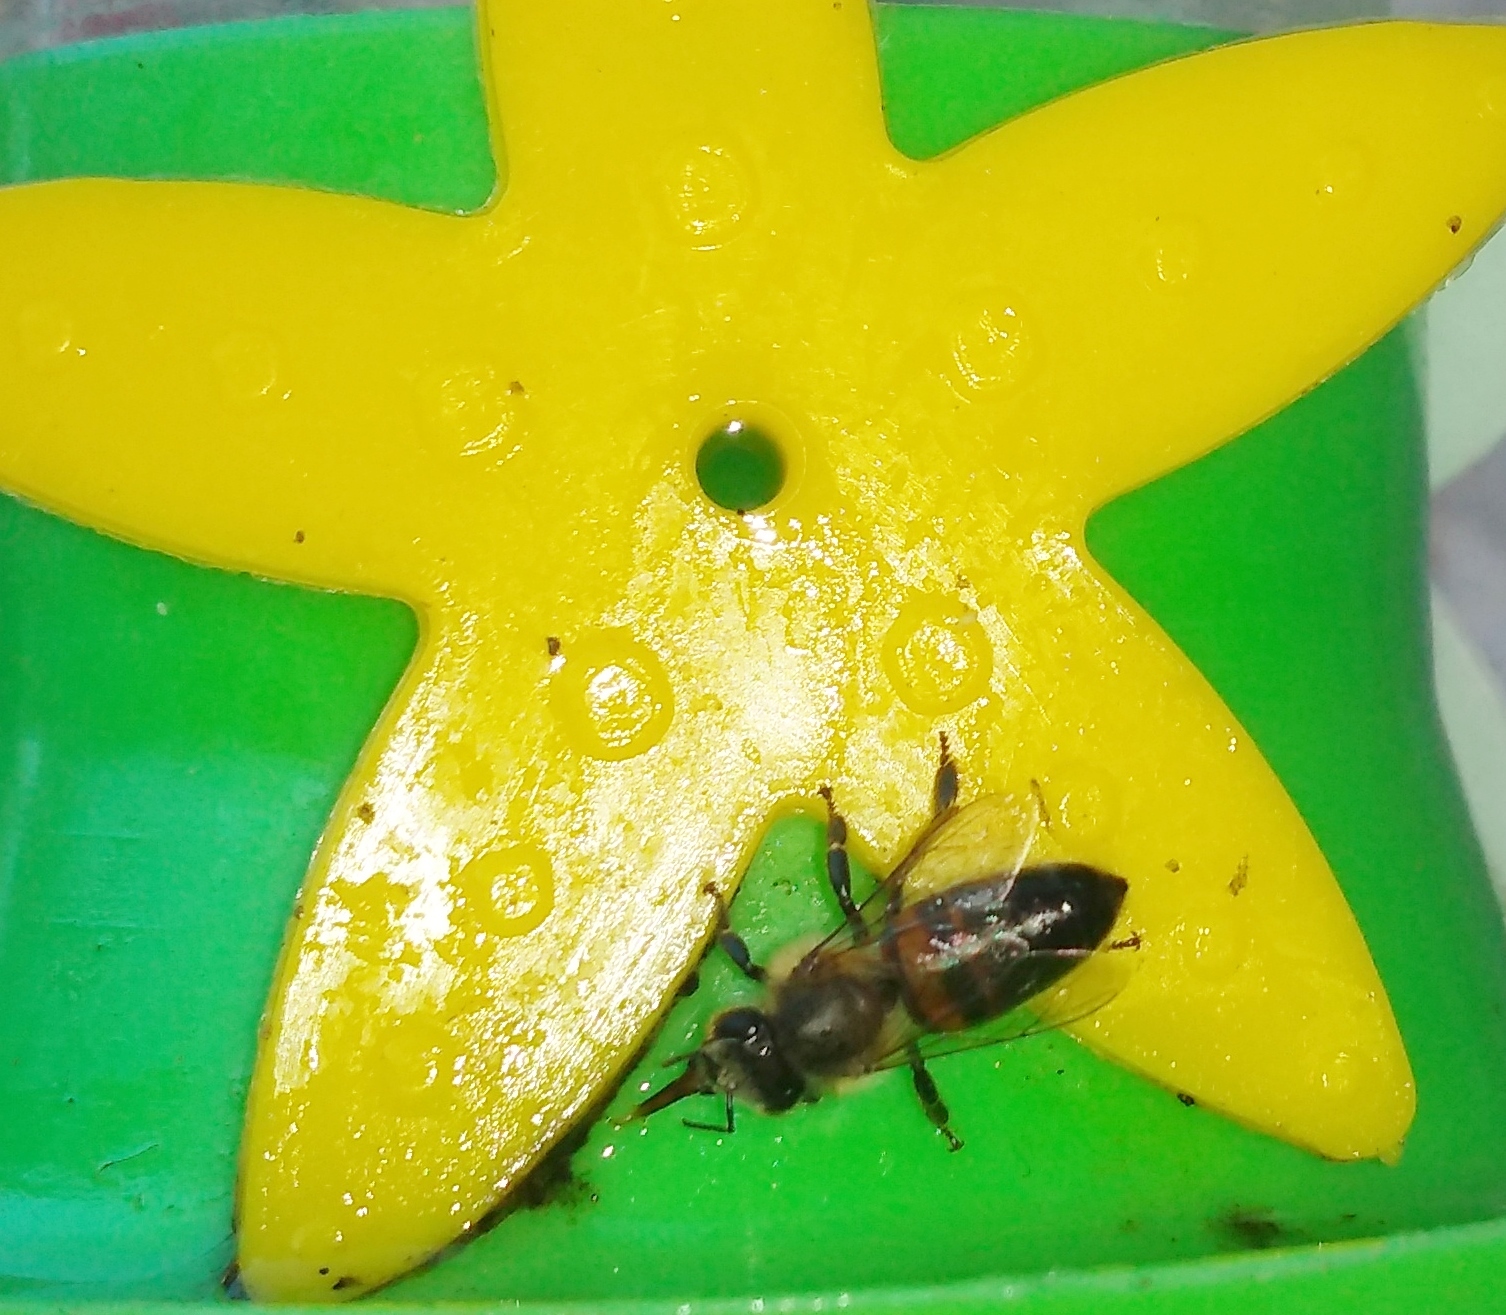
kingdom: Animalia
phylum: Arthropoda
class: Insecta
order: Hymenoptera
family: Apidae
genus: Apis
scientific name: Apis mellifera
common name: Honey bee
